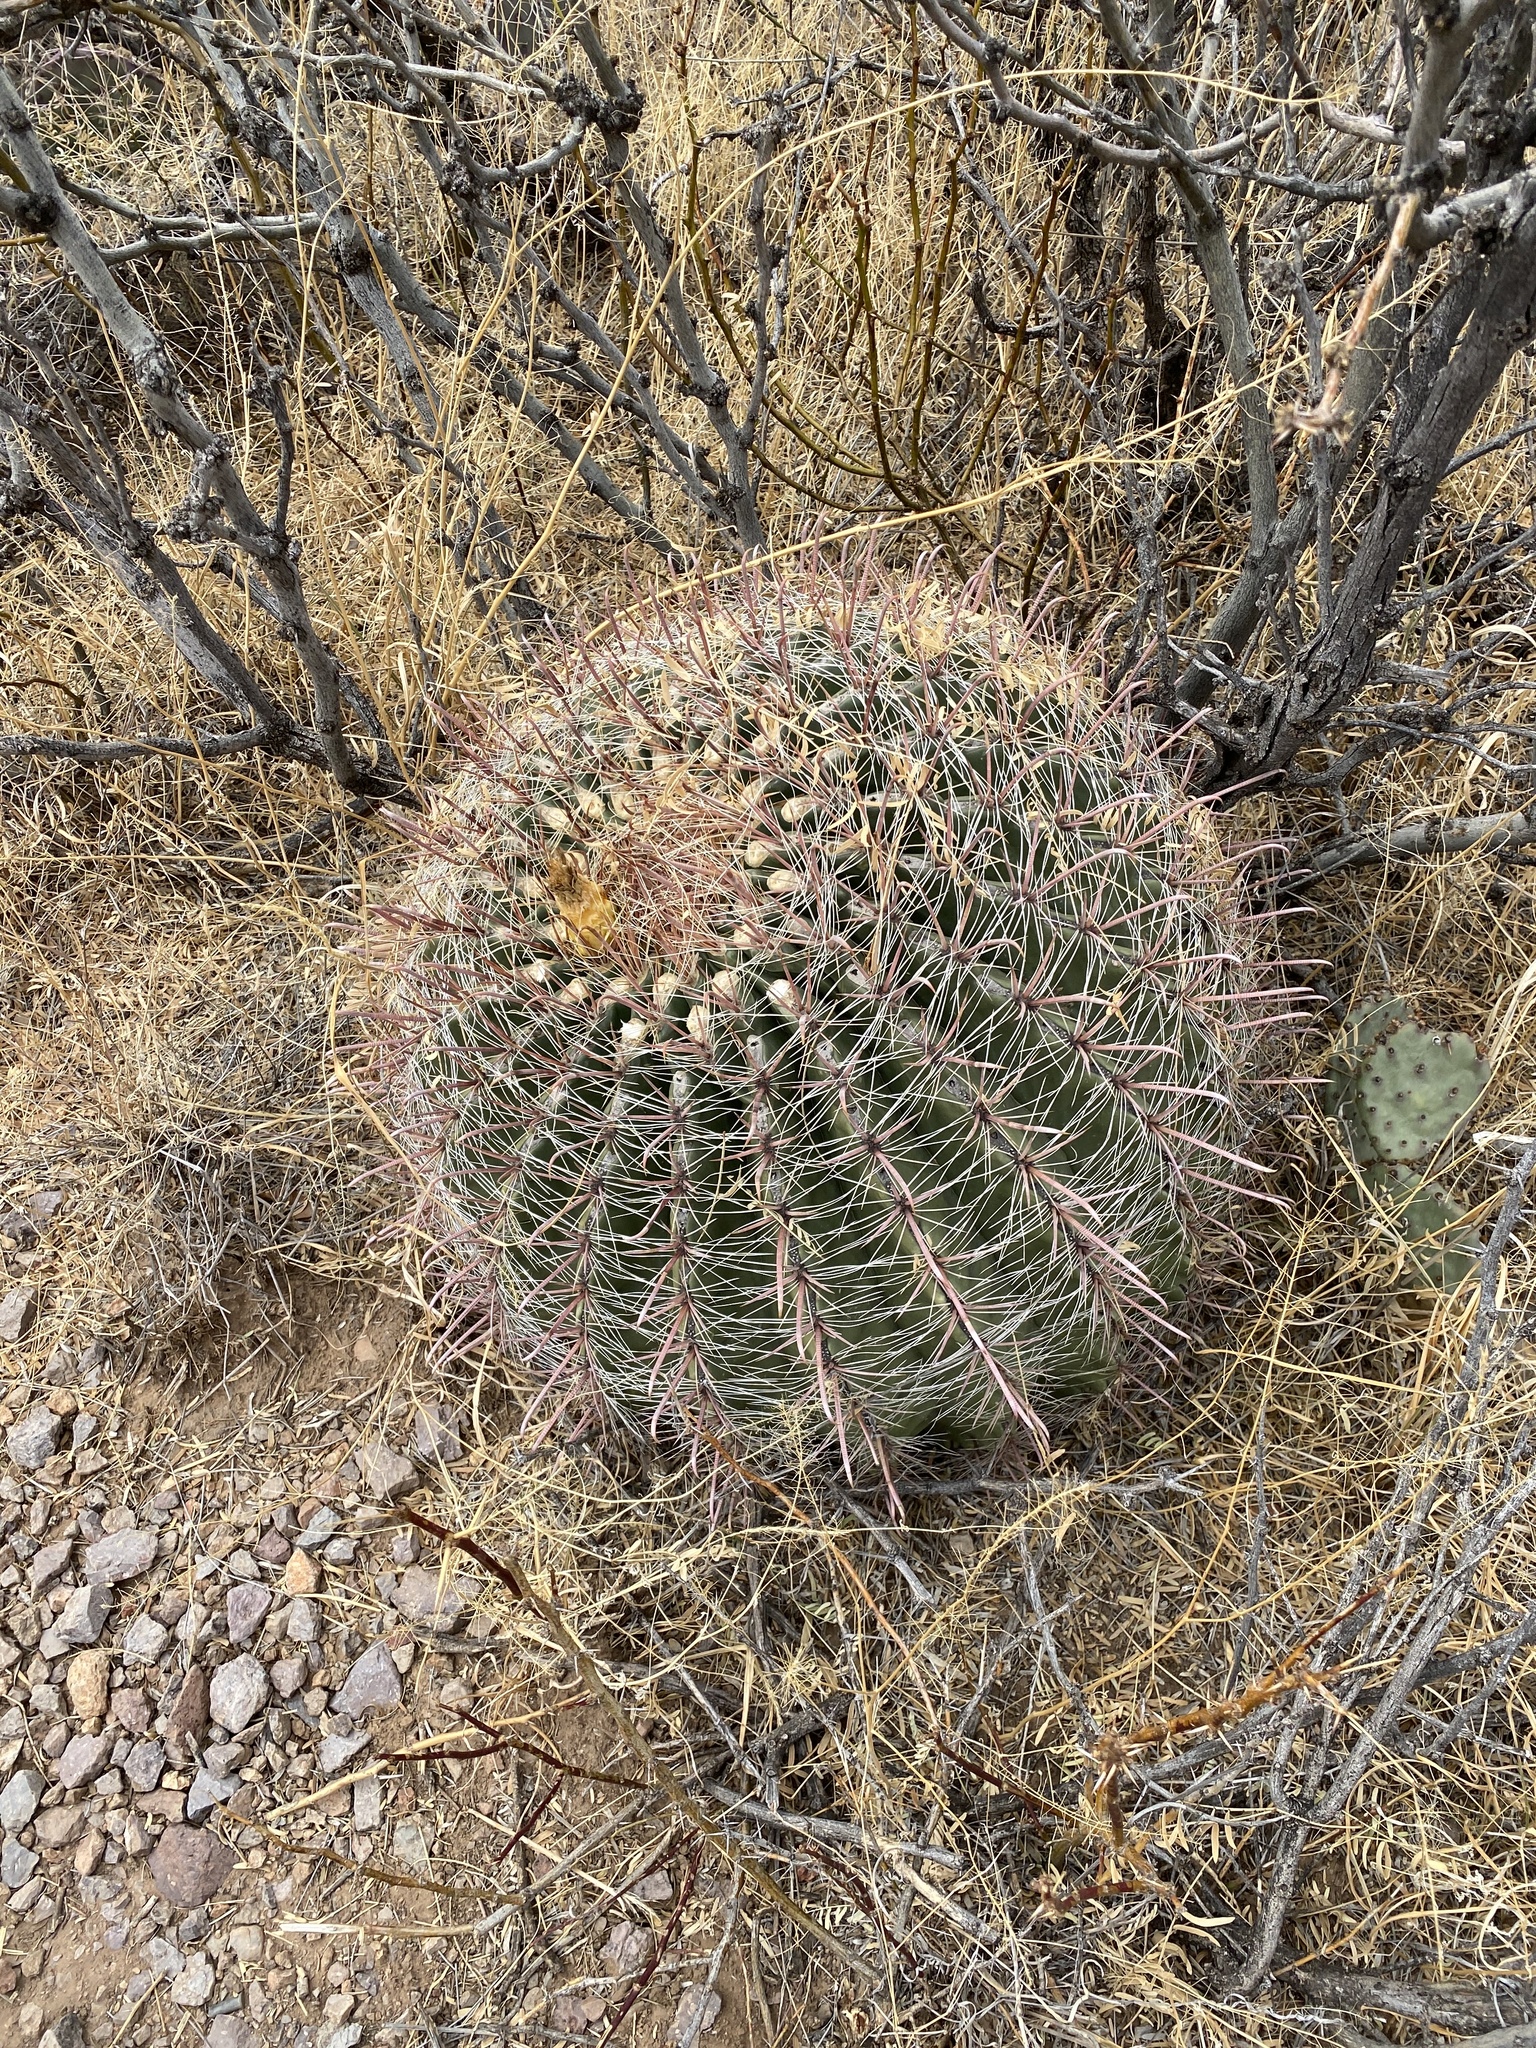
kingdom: Plantae
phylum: Tracheophyta
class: Magnoliopsida
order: Caryophyllales
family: Cactaceae
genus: Ferocactus
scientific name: Ferocactus wislizeni
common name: Candy barrel cactus
